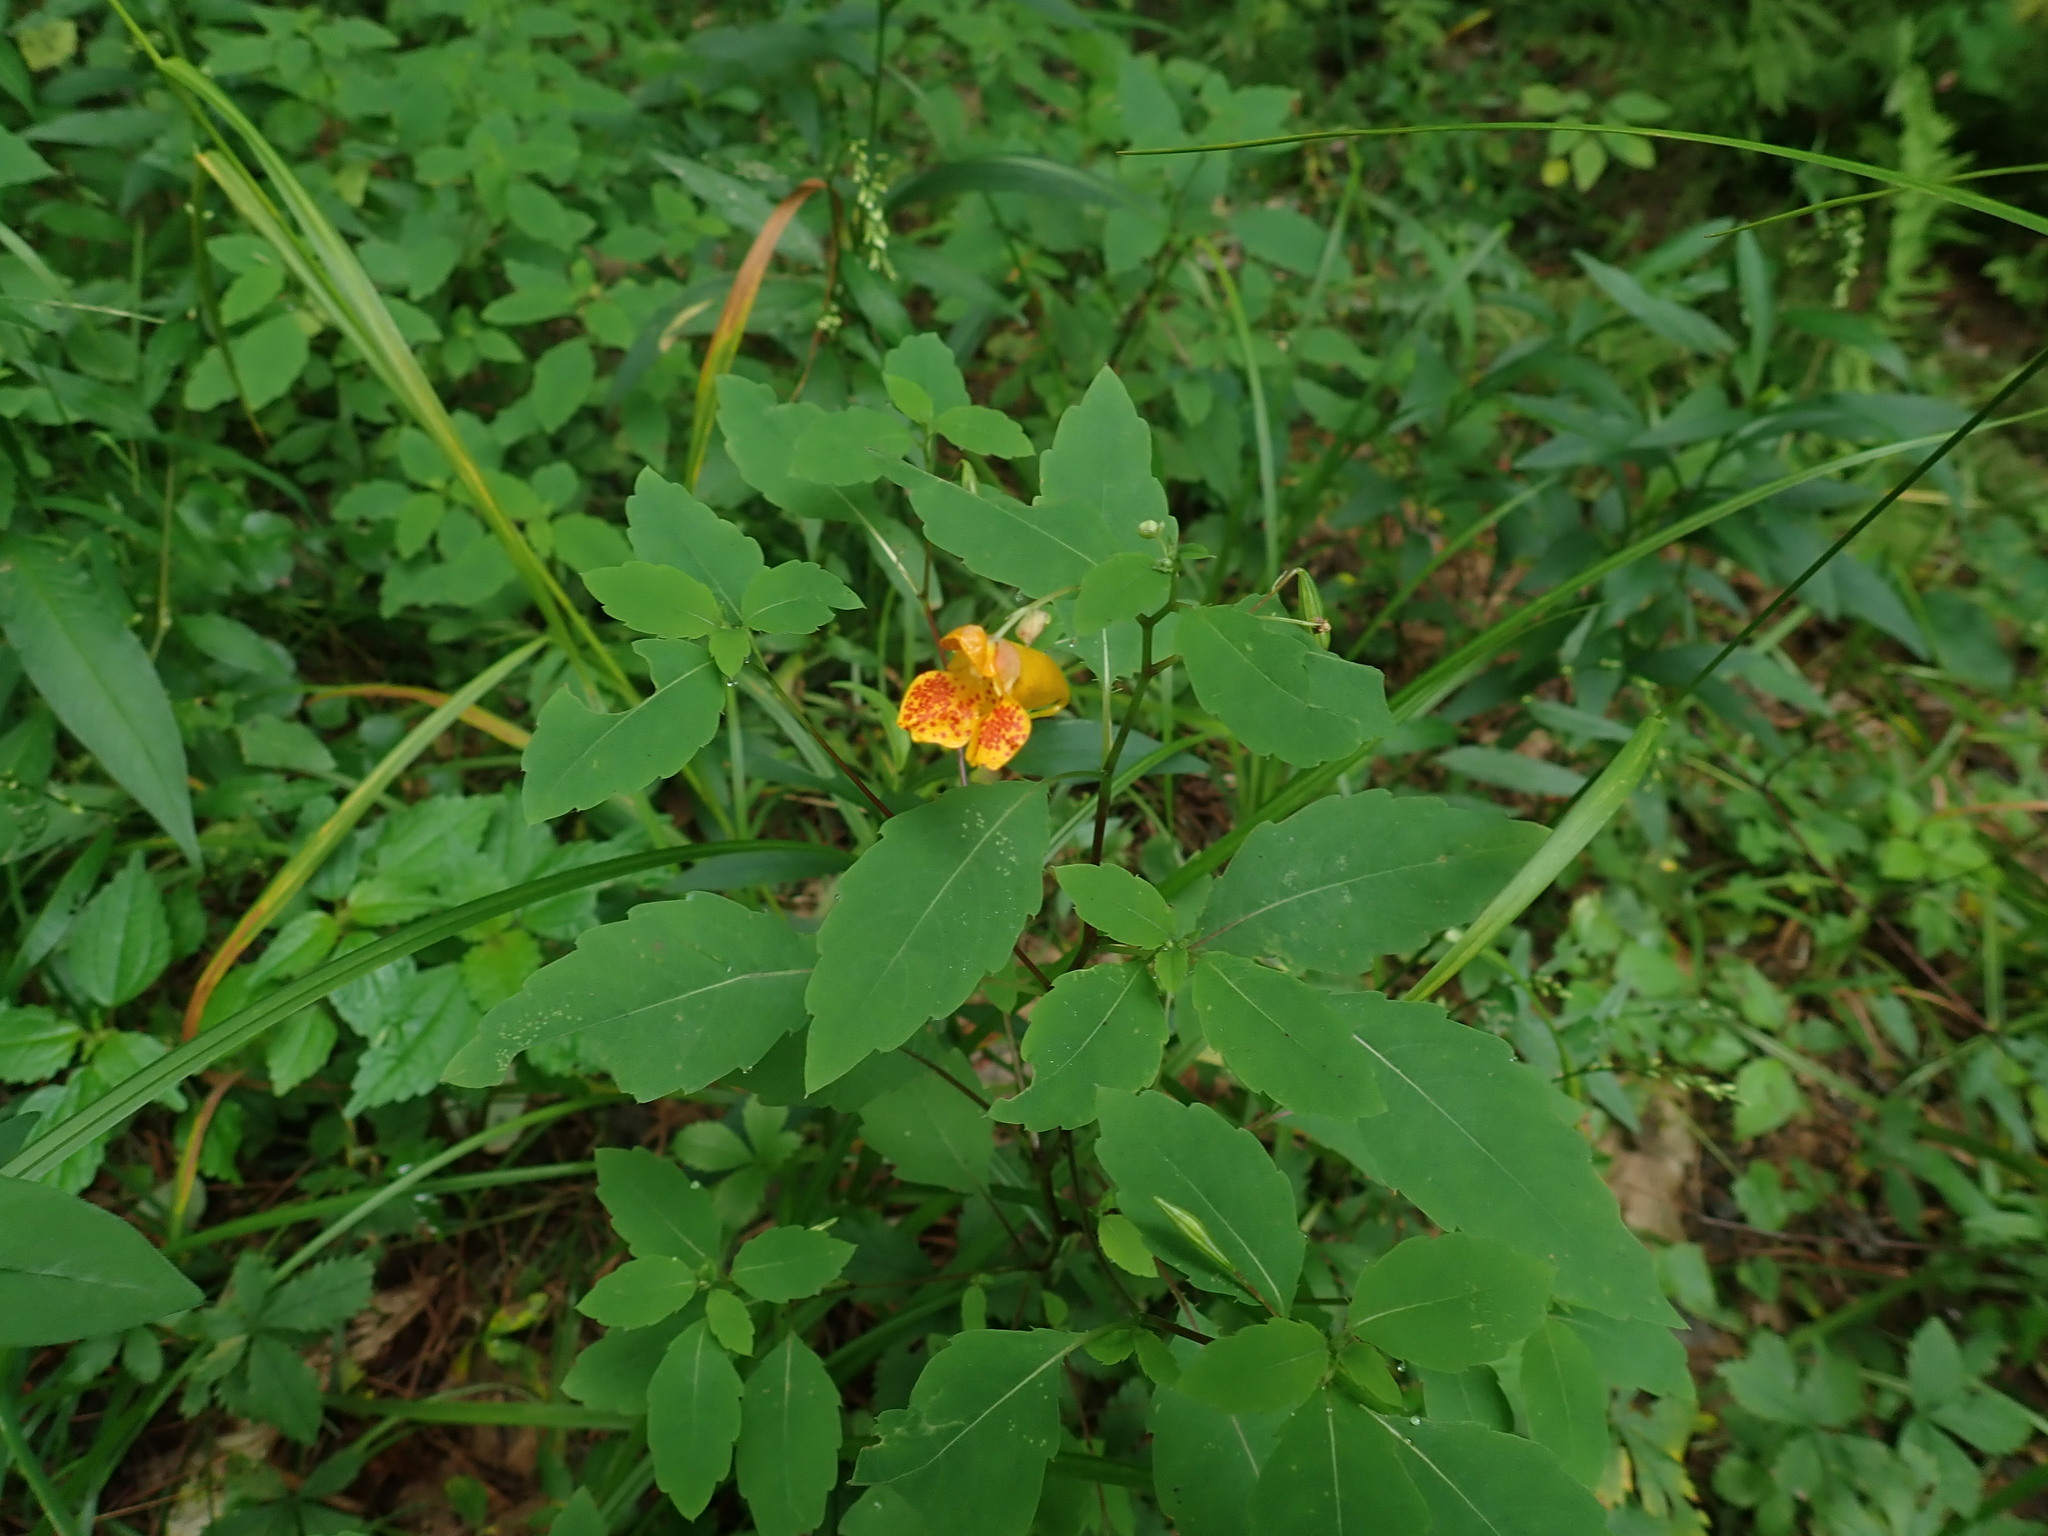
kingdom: Plantae
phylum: Tracheophyta
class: Magnoliopsida
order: Ericales
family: Balsaminaceae
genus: Impatiens
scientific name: Impatiens capensis
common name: Orange balsam
